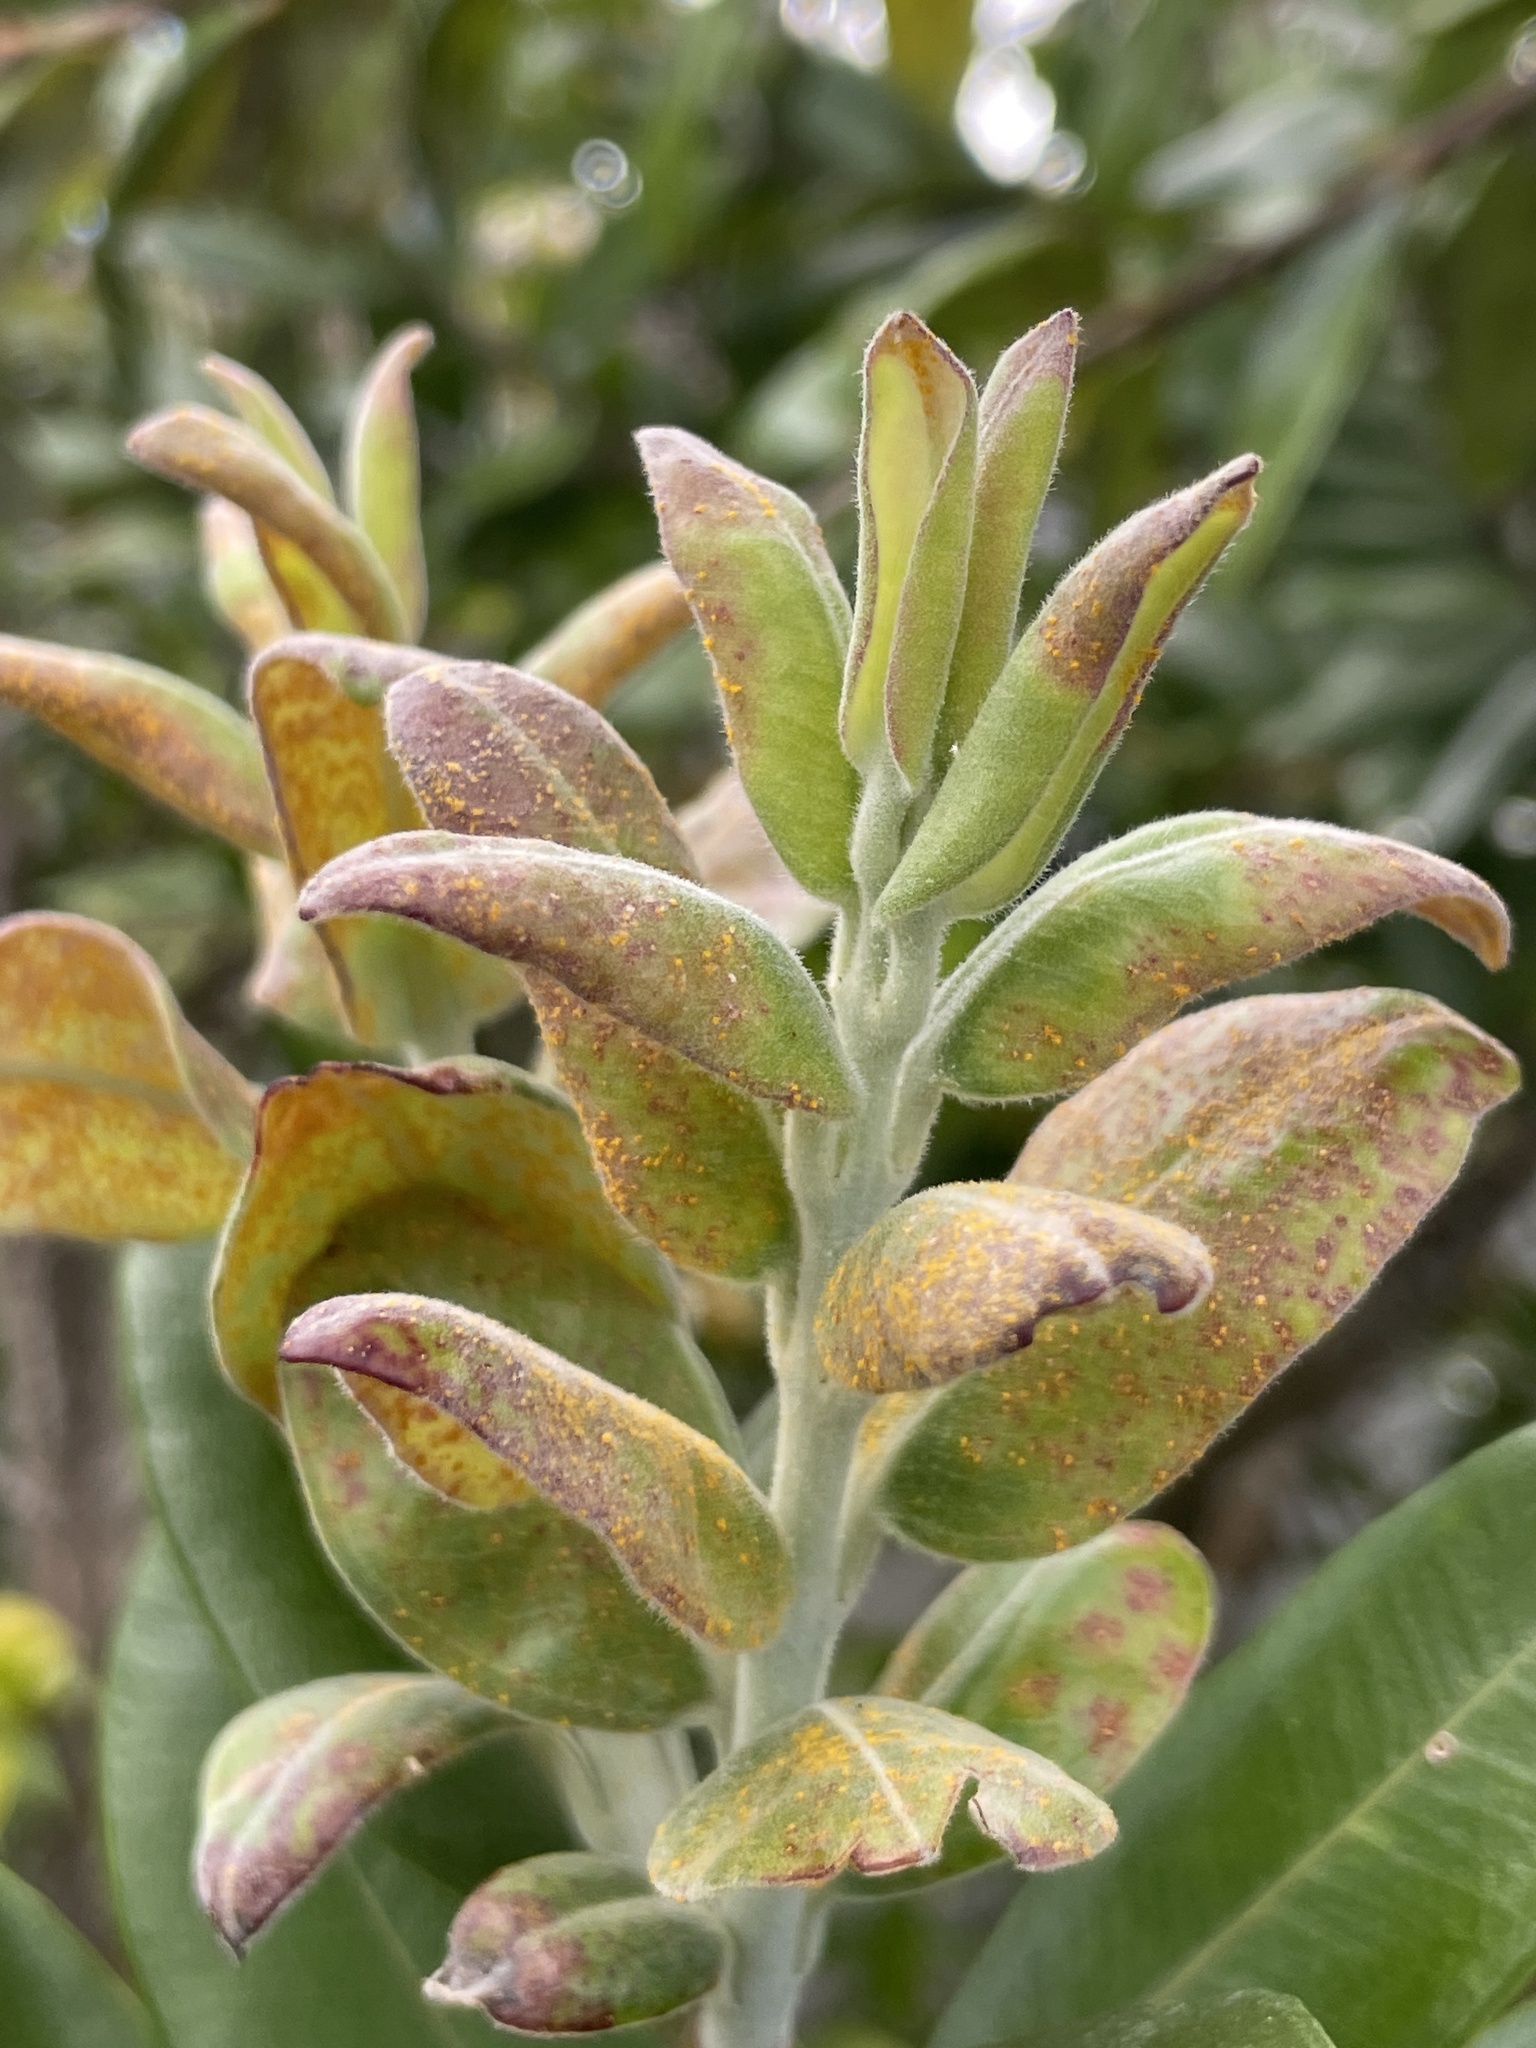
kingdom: Fungi
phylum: Basidiomycota
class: Pucciniomycetes
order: Pucciniales
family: Sphaerophragmiaceae
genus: Austropuccinia
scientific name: Austropuccinia psidii
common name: Myrtle rust
